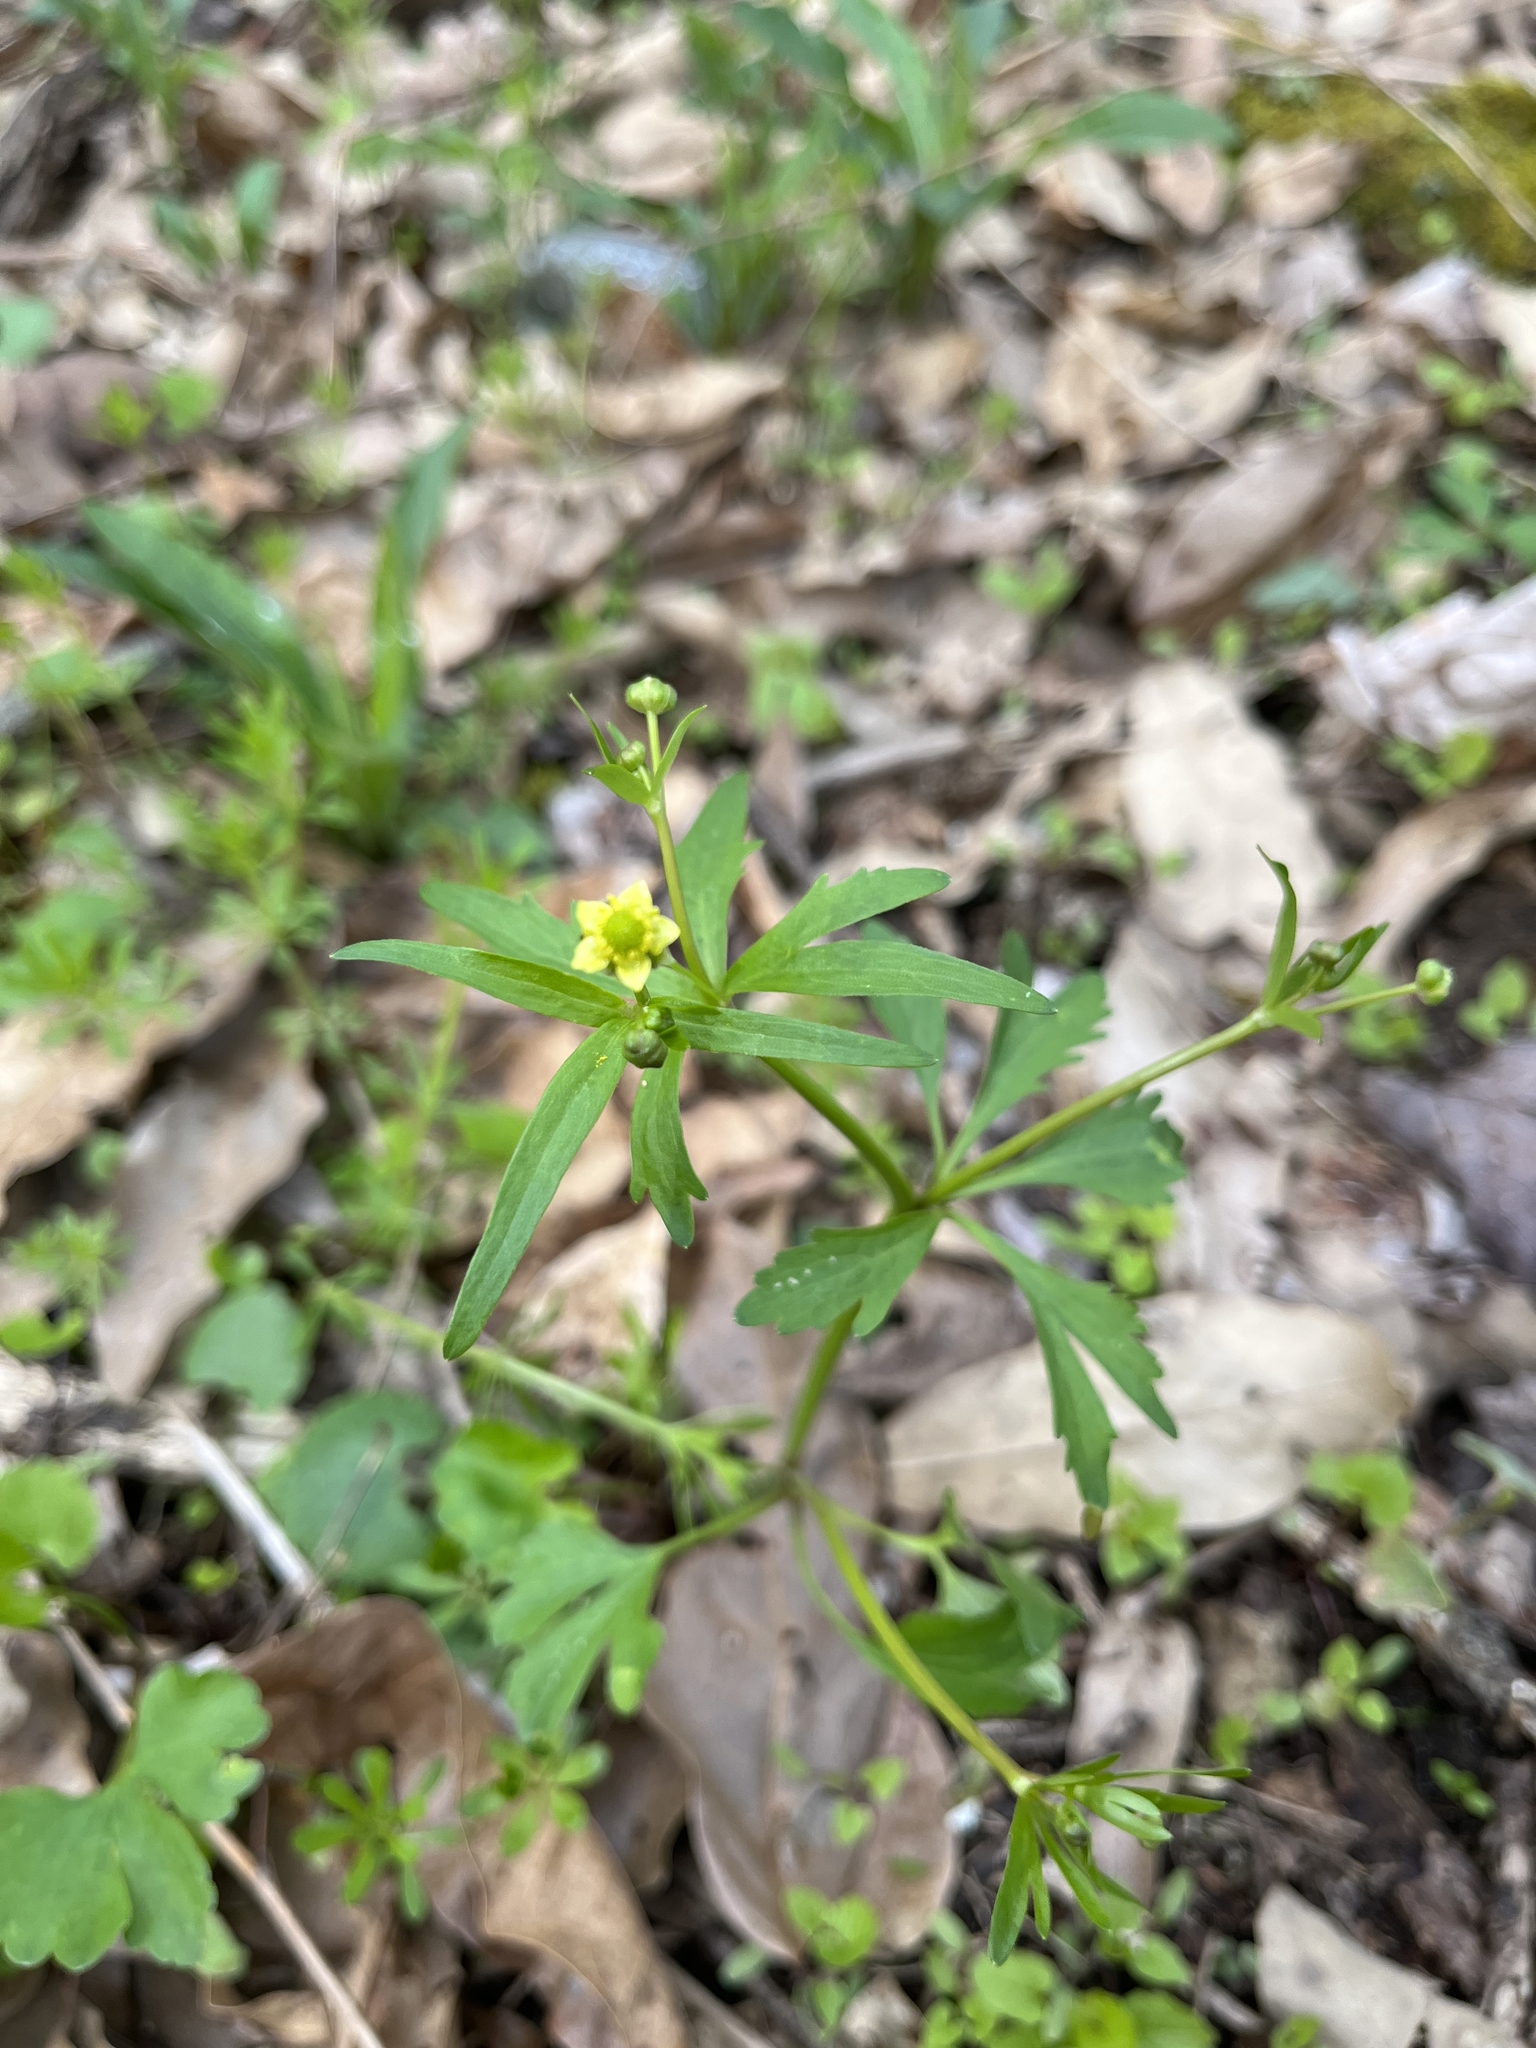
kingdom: Plantae
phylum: Tracheophyta
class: Magnoliopsida
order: Ranunculales
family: Ranunculaceae
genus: Ranunculus
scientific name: Ranunculus abortivus
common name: Early wood buttercup
